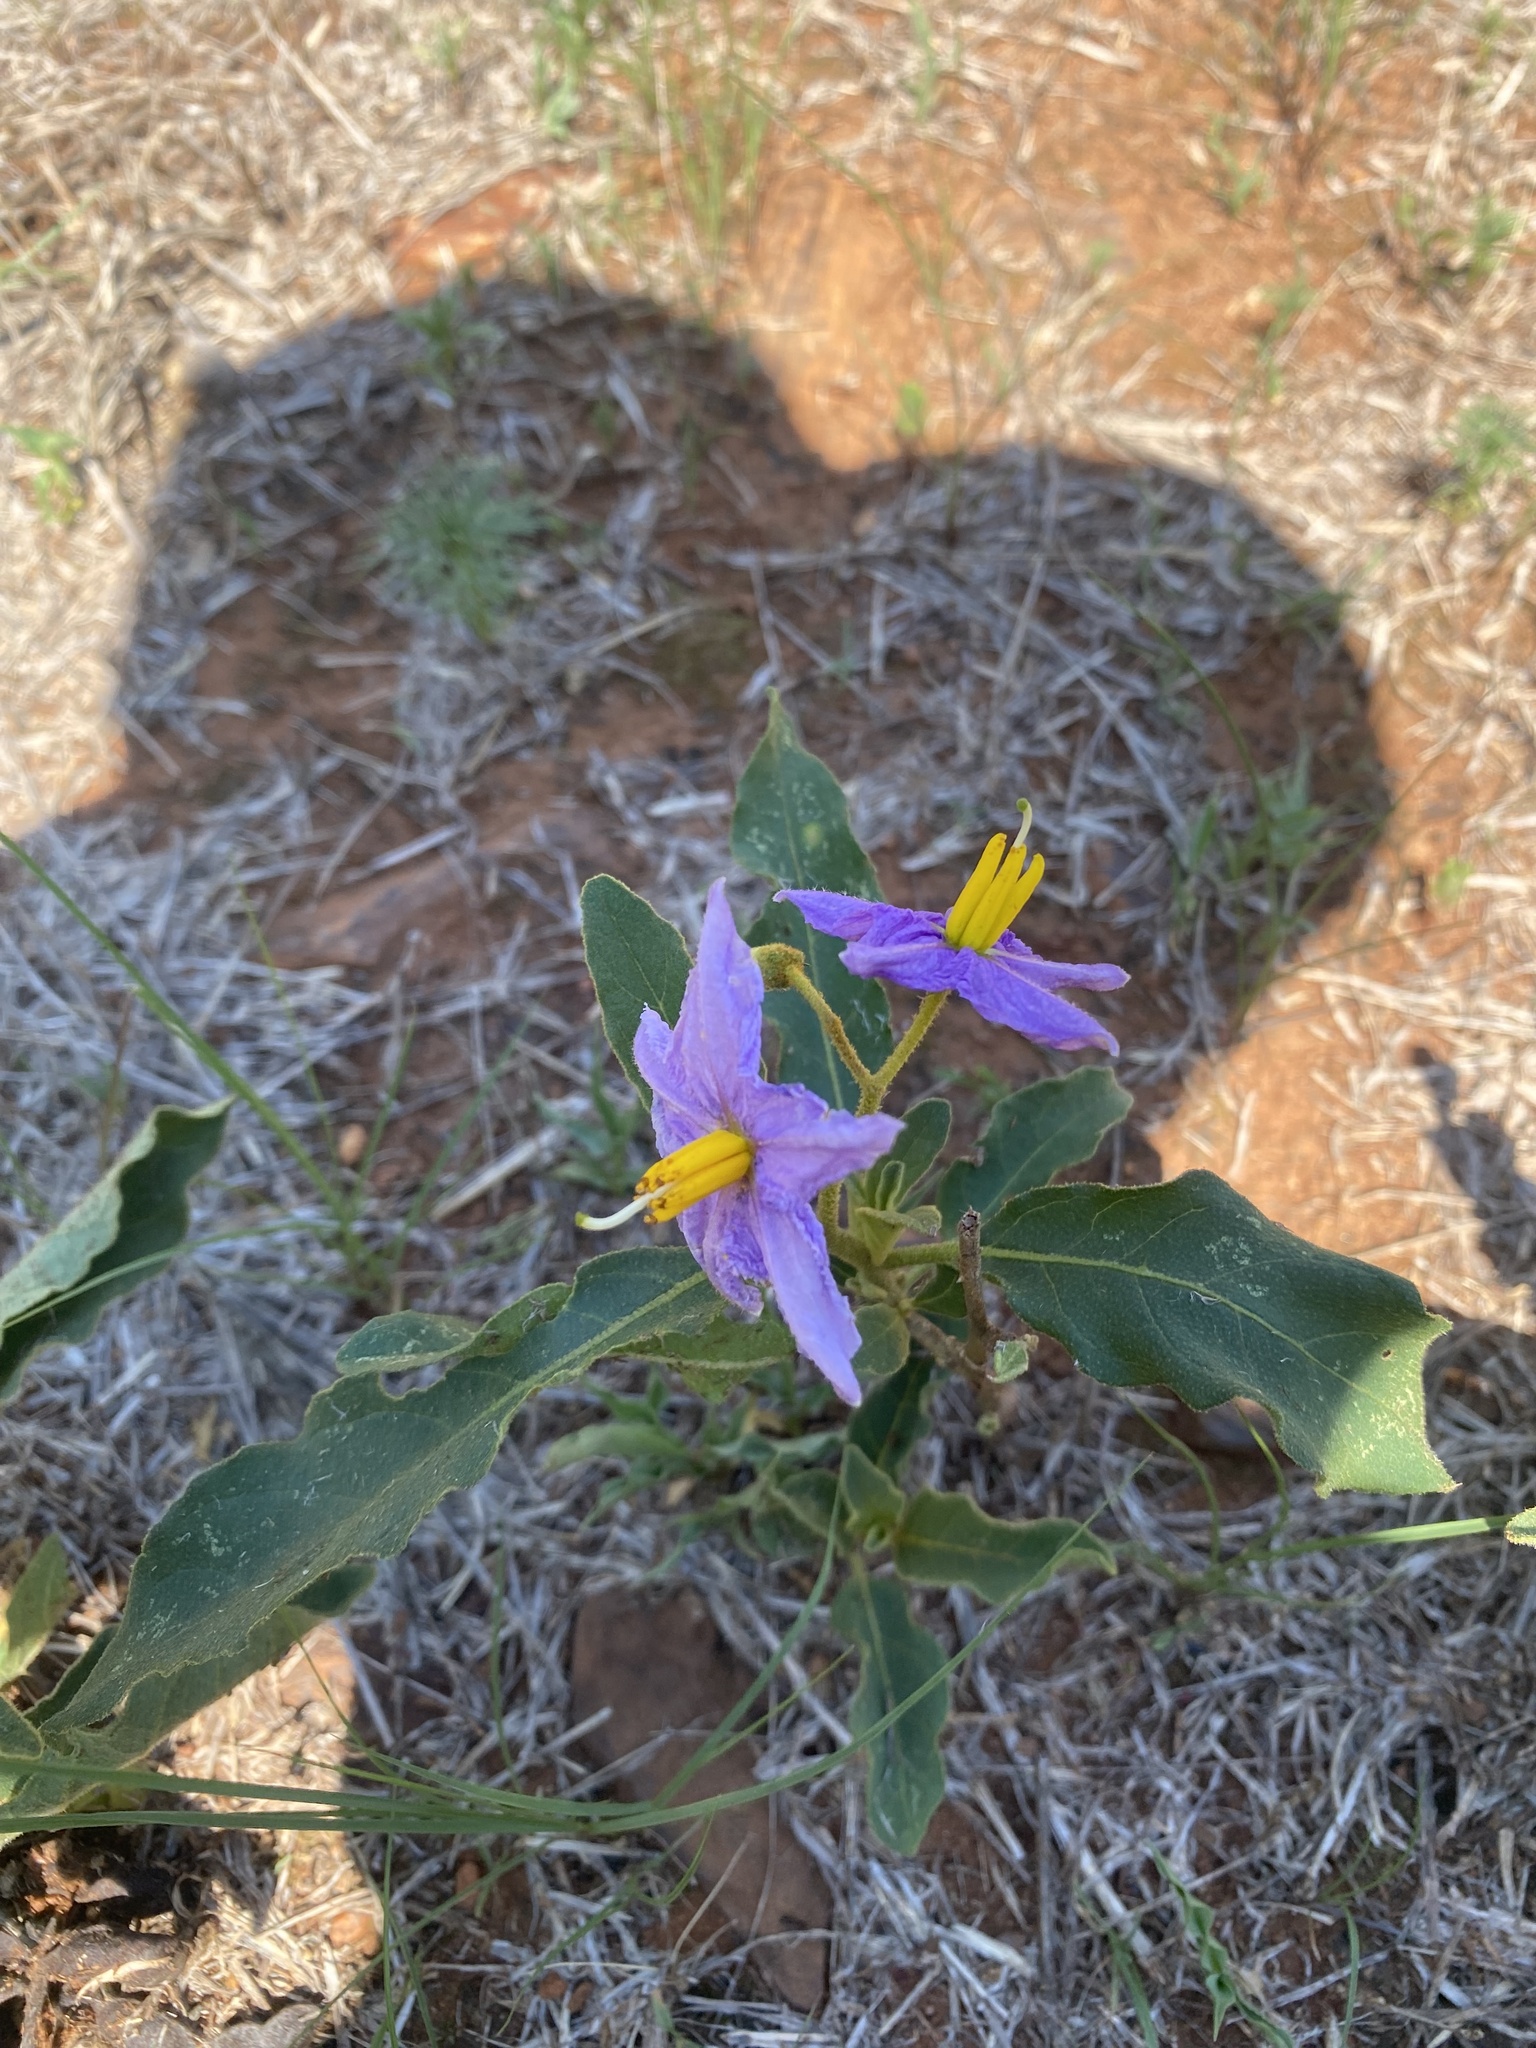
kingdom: Plantae
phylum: Tracheophyta
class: Magnoliopsida
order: Solanales
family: Solanaceae
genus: Solanum
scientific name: Solanum campylacanthum
